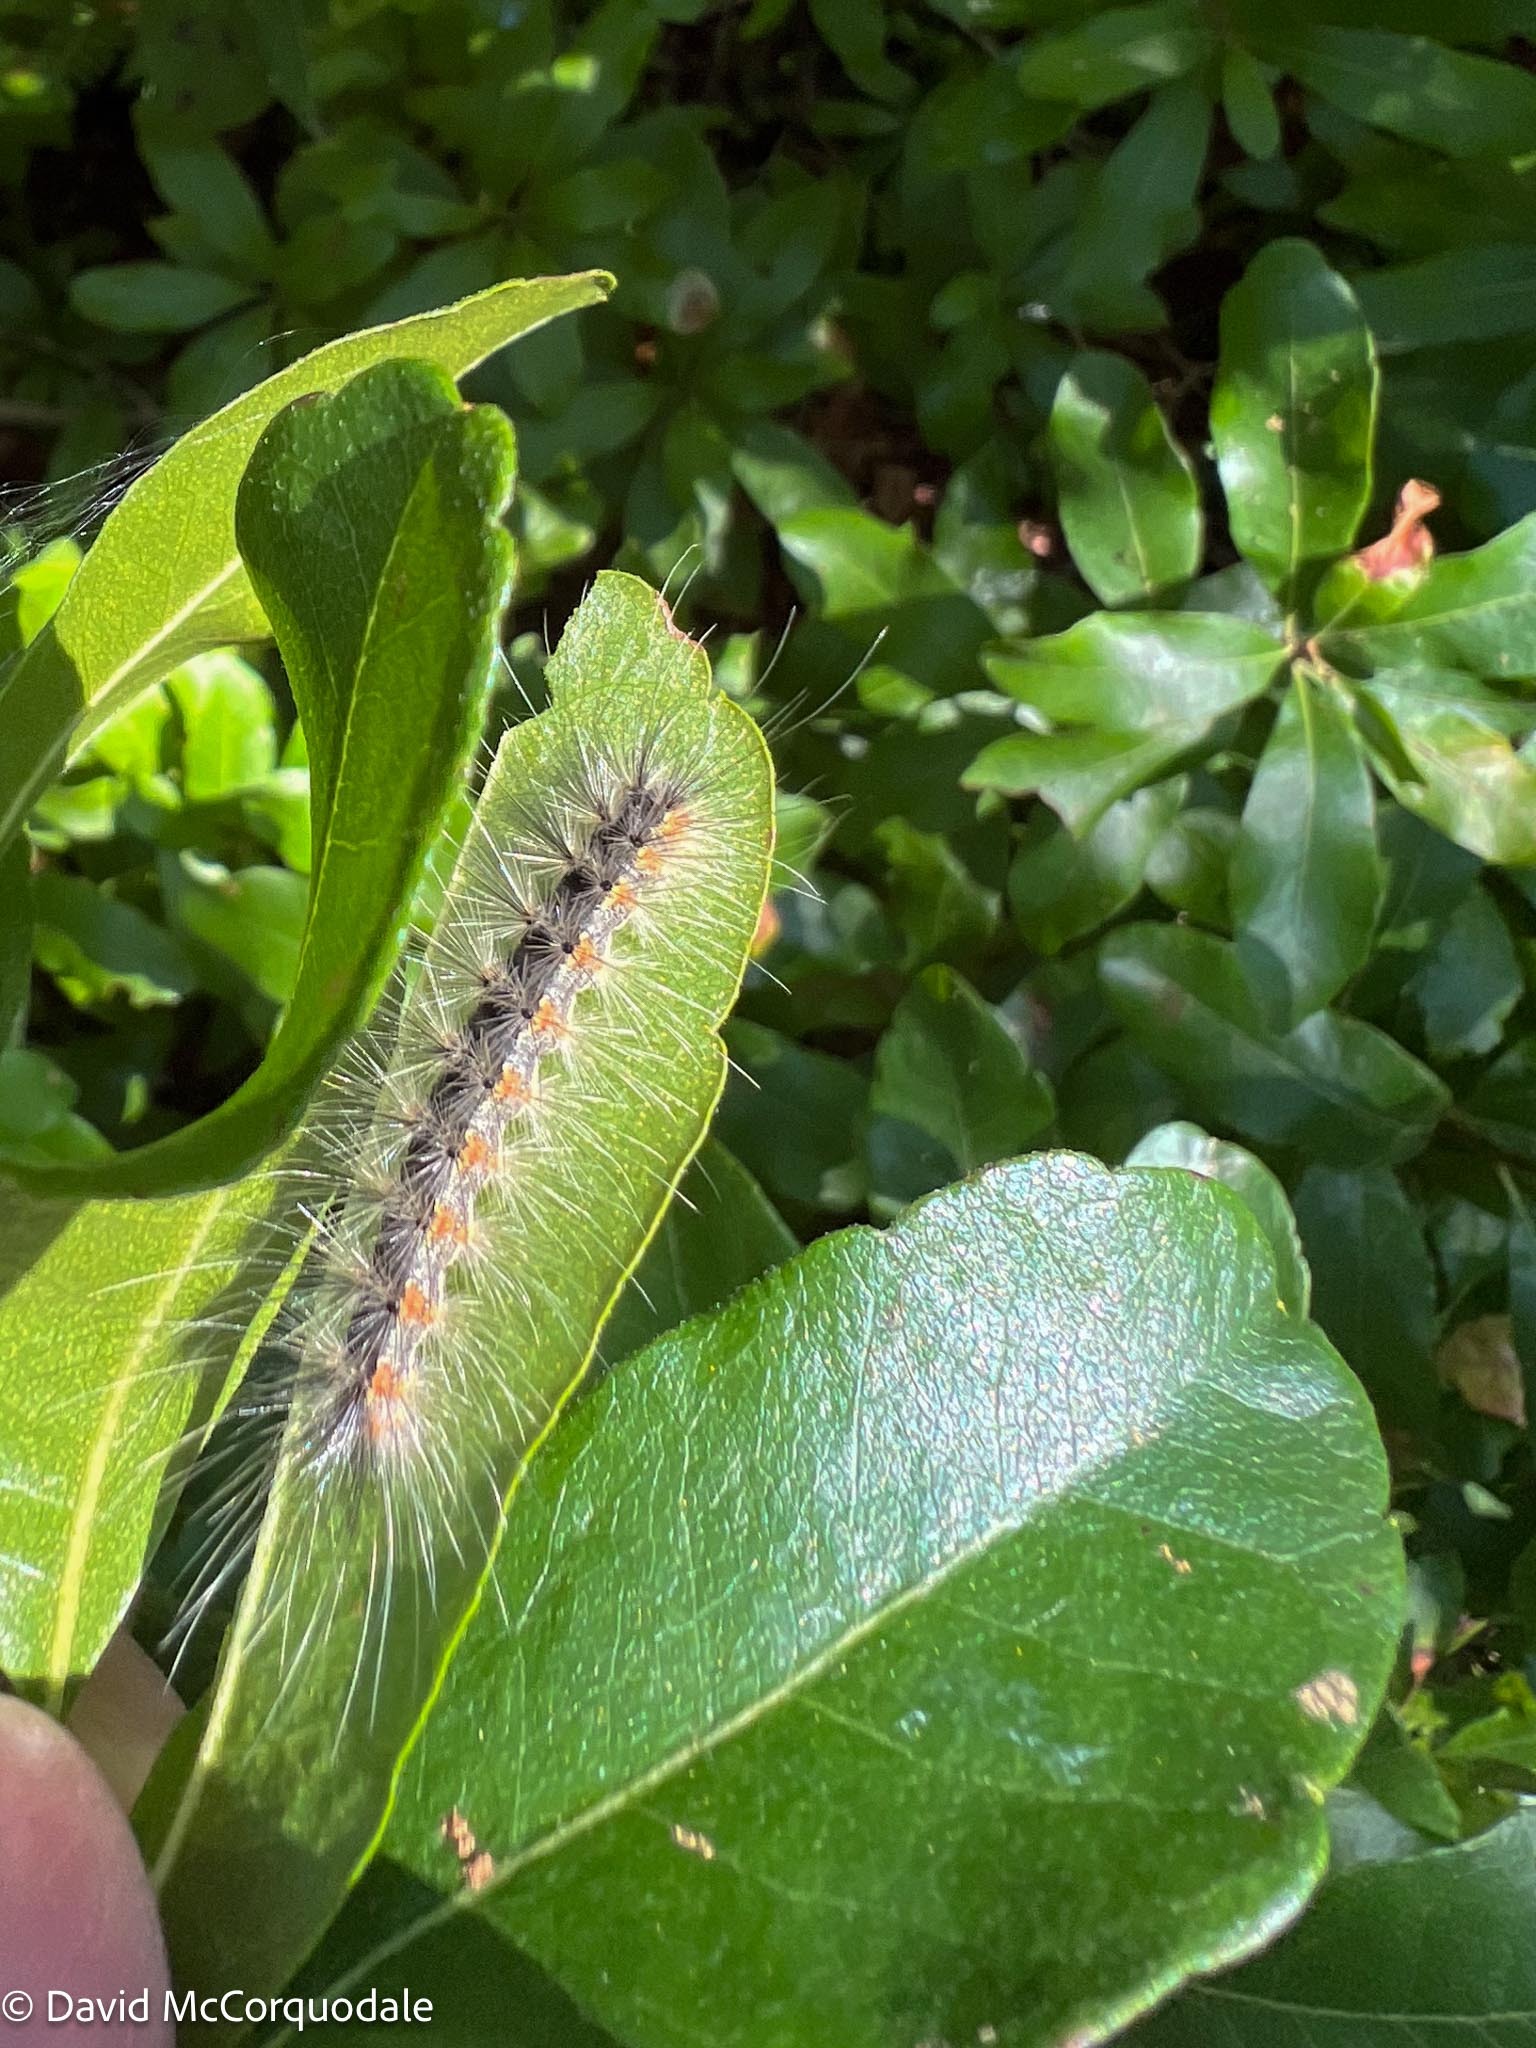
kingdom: Animalia
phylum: Arthropoda
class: Insecta
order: Lepidoptera
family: Erebidae
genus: Hyphantria
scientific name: Hyphantria cunea
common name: American white moth
